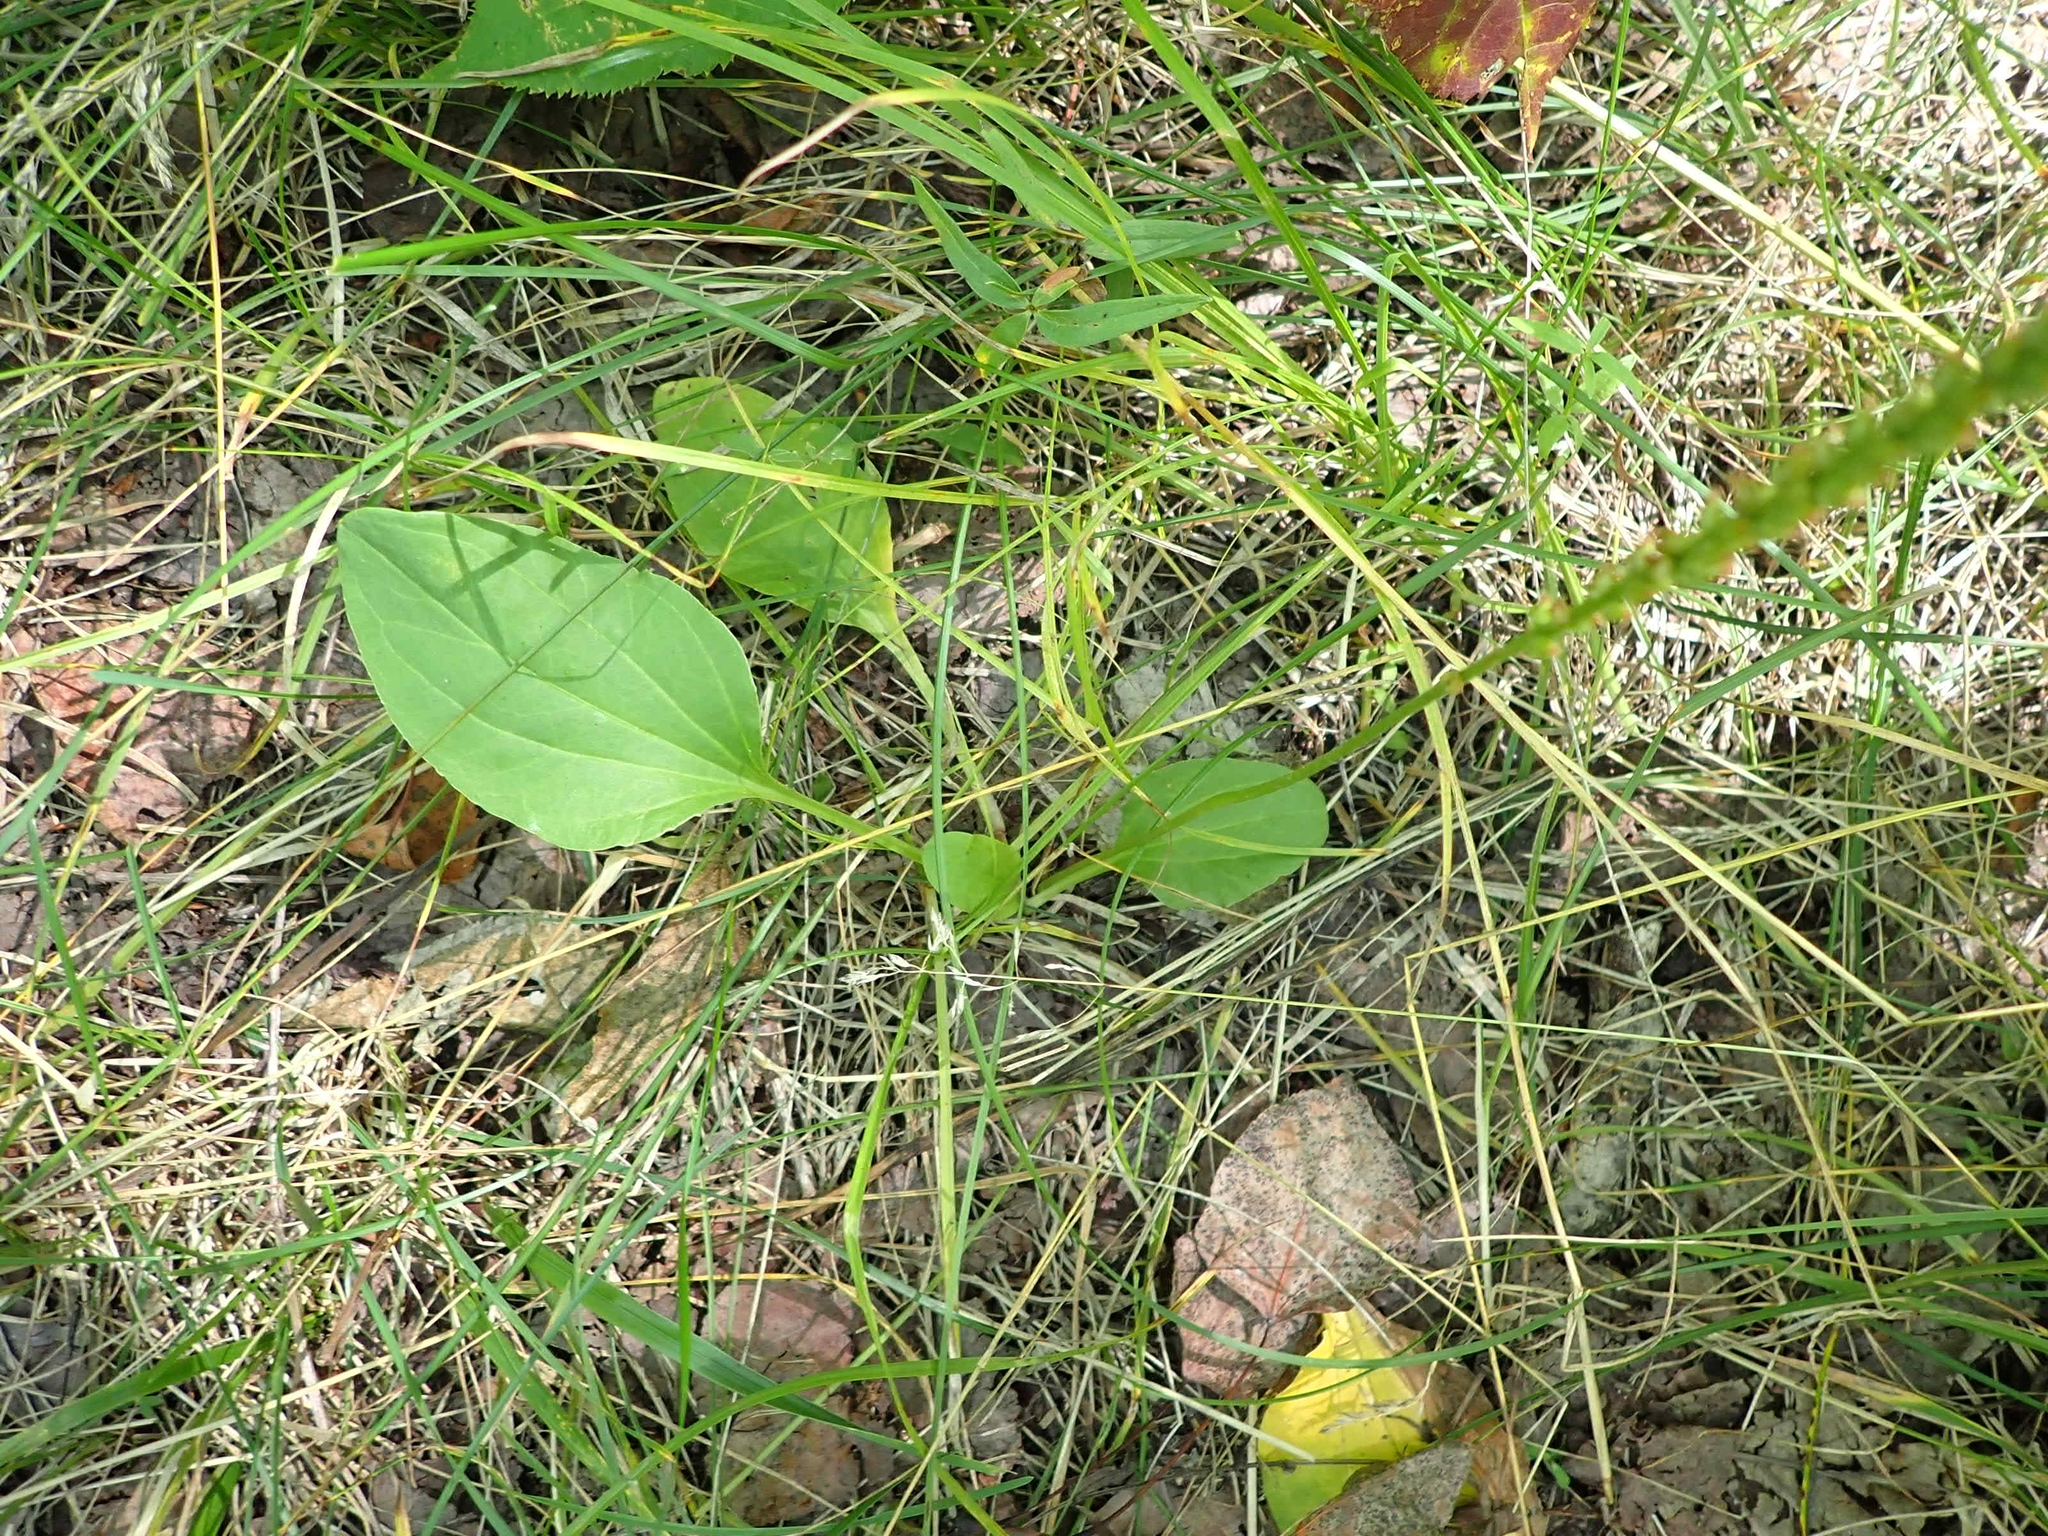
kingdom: Plantae
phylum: Tracheophyta
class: Magnoliopsida
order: Lamiales
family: Plantaginaceae
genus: Plantago
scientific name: Plantago major
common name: Common plantain
